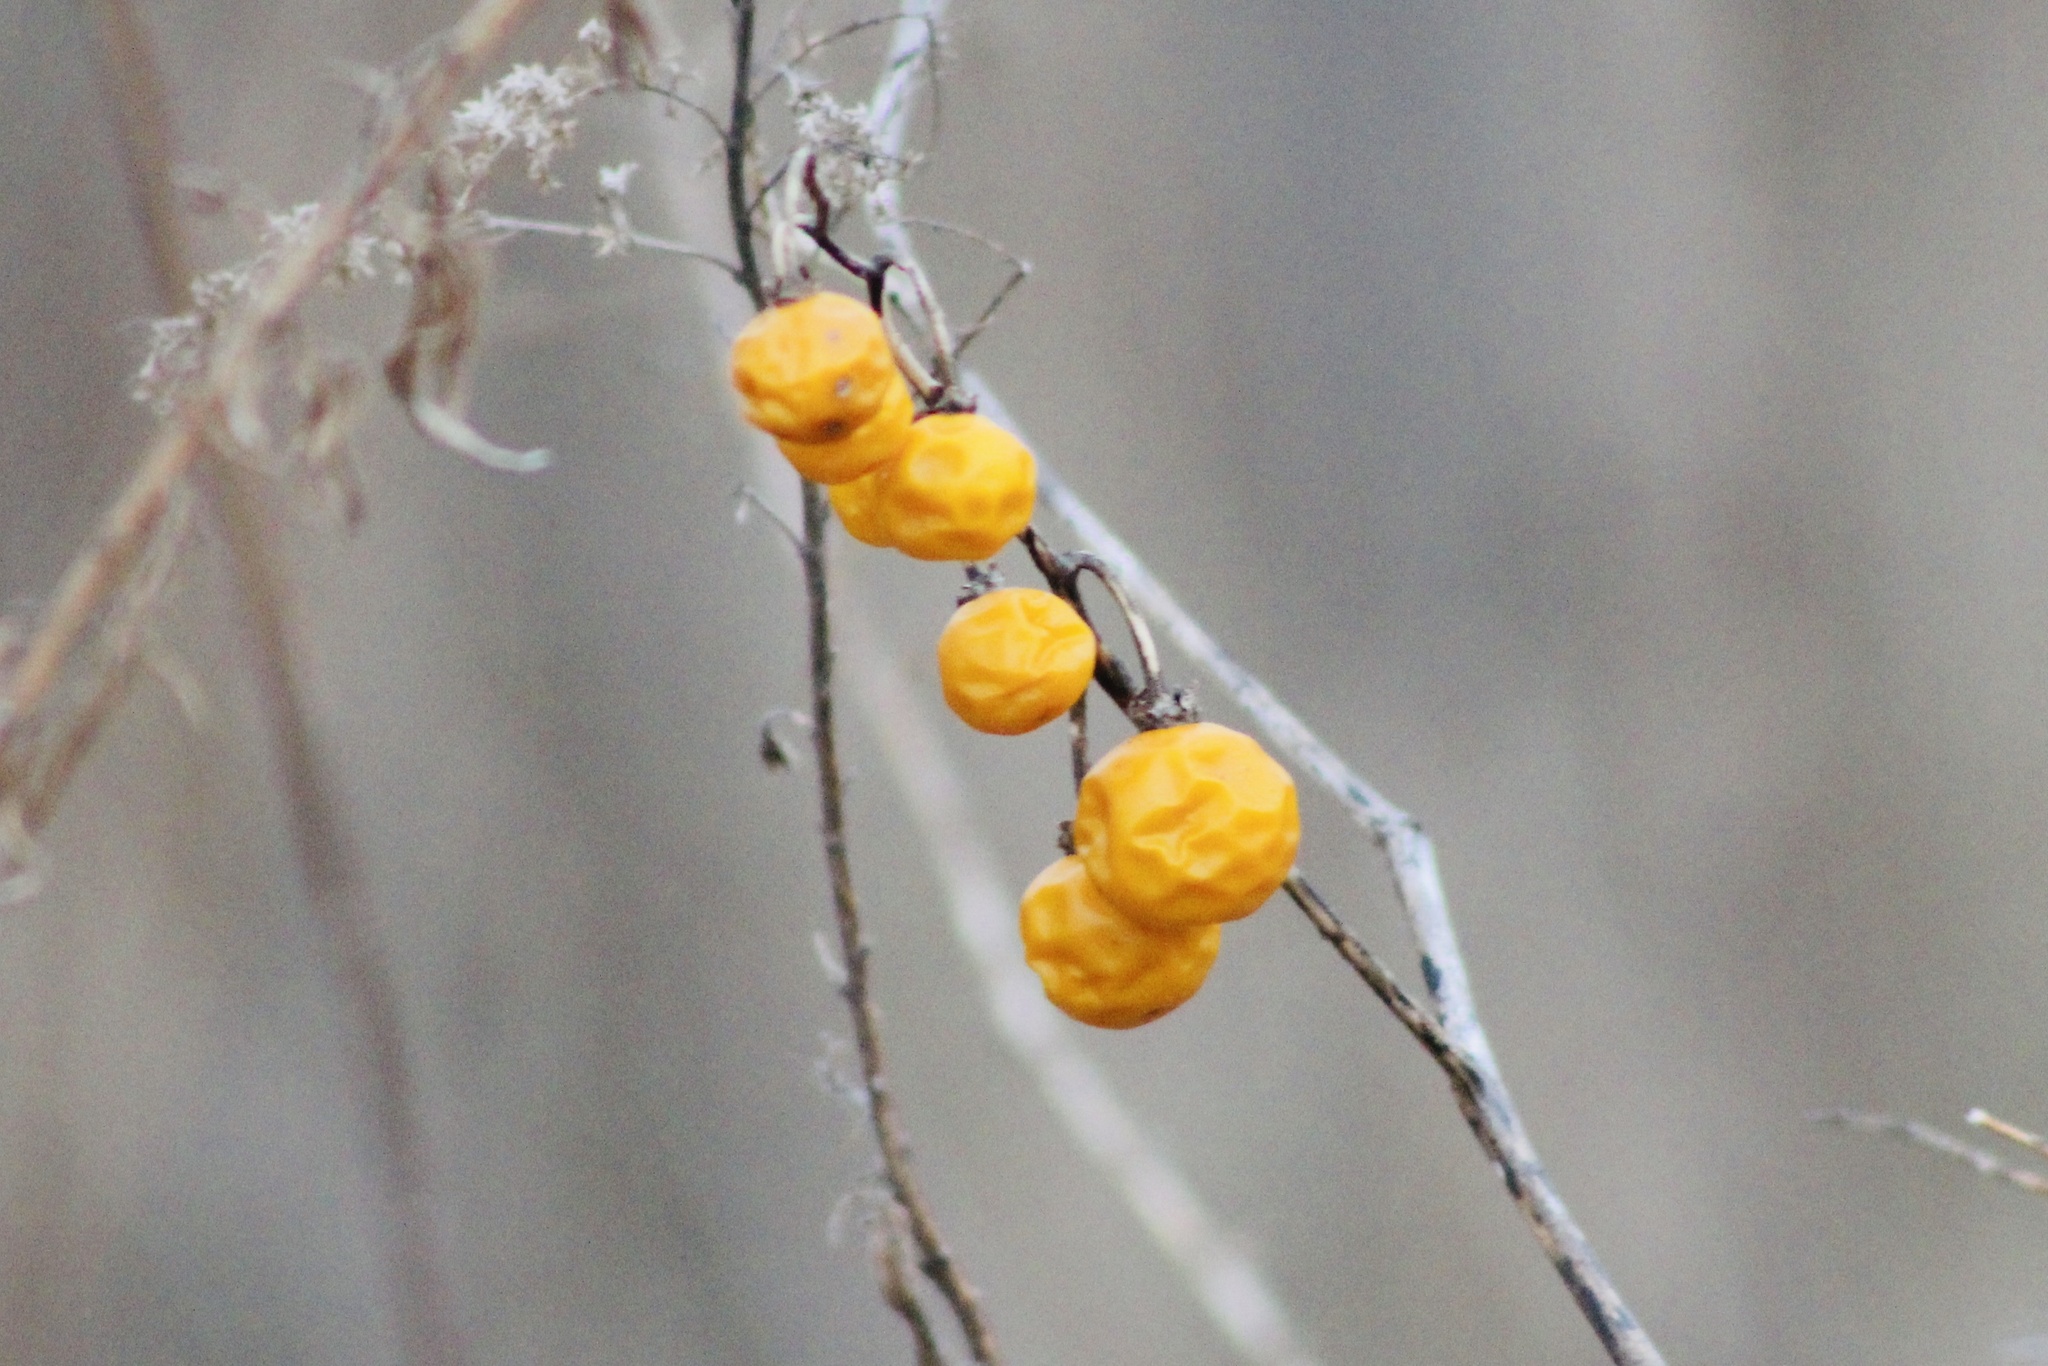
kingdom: Plantae
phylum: Tracheophyta
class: Magnoliopsida
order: Solanales
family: Solanaceae
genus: Solanum
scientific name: Solanum carolinense
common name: Horse-nettle
